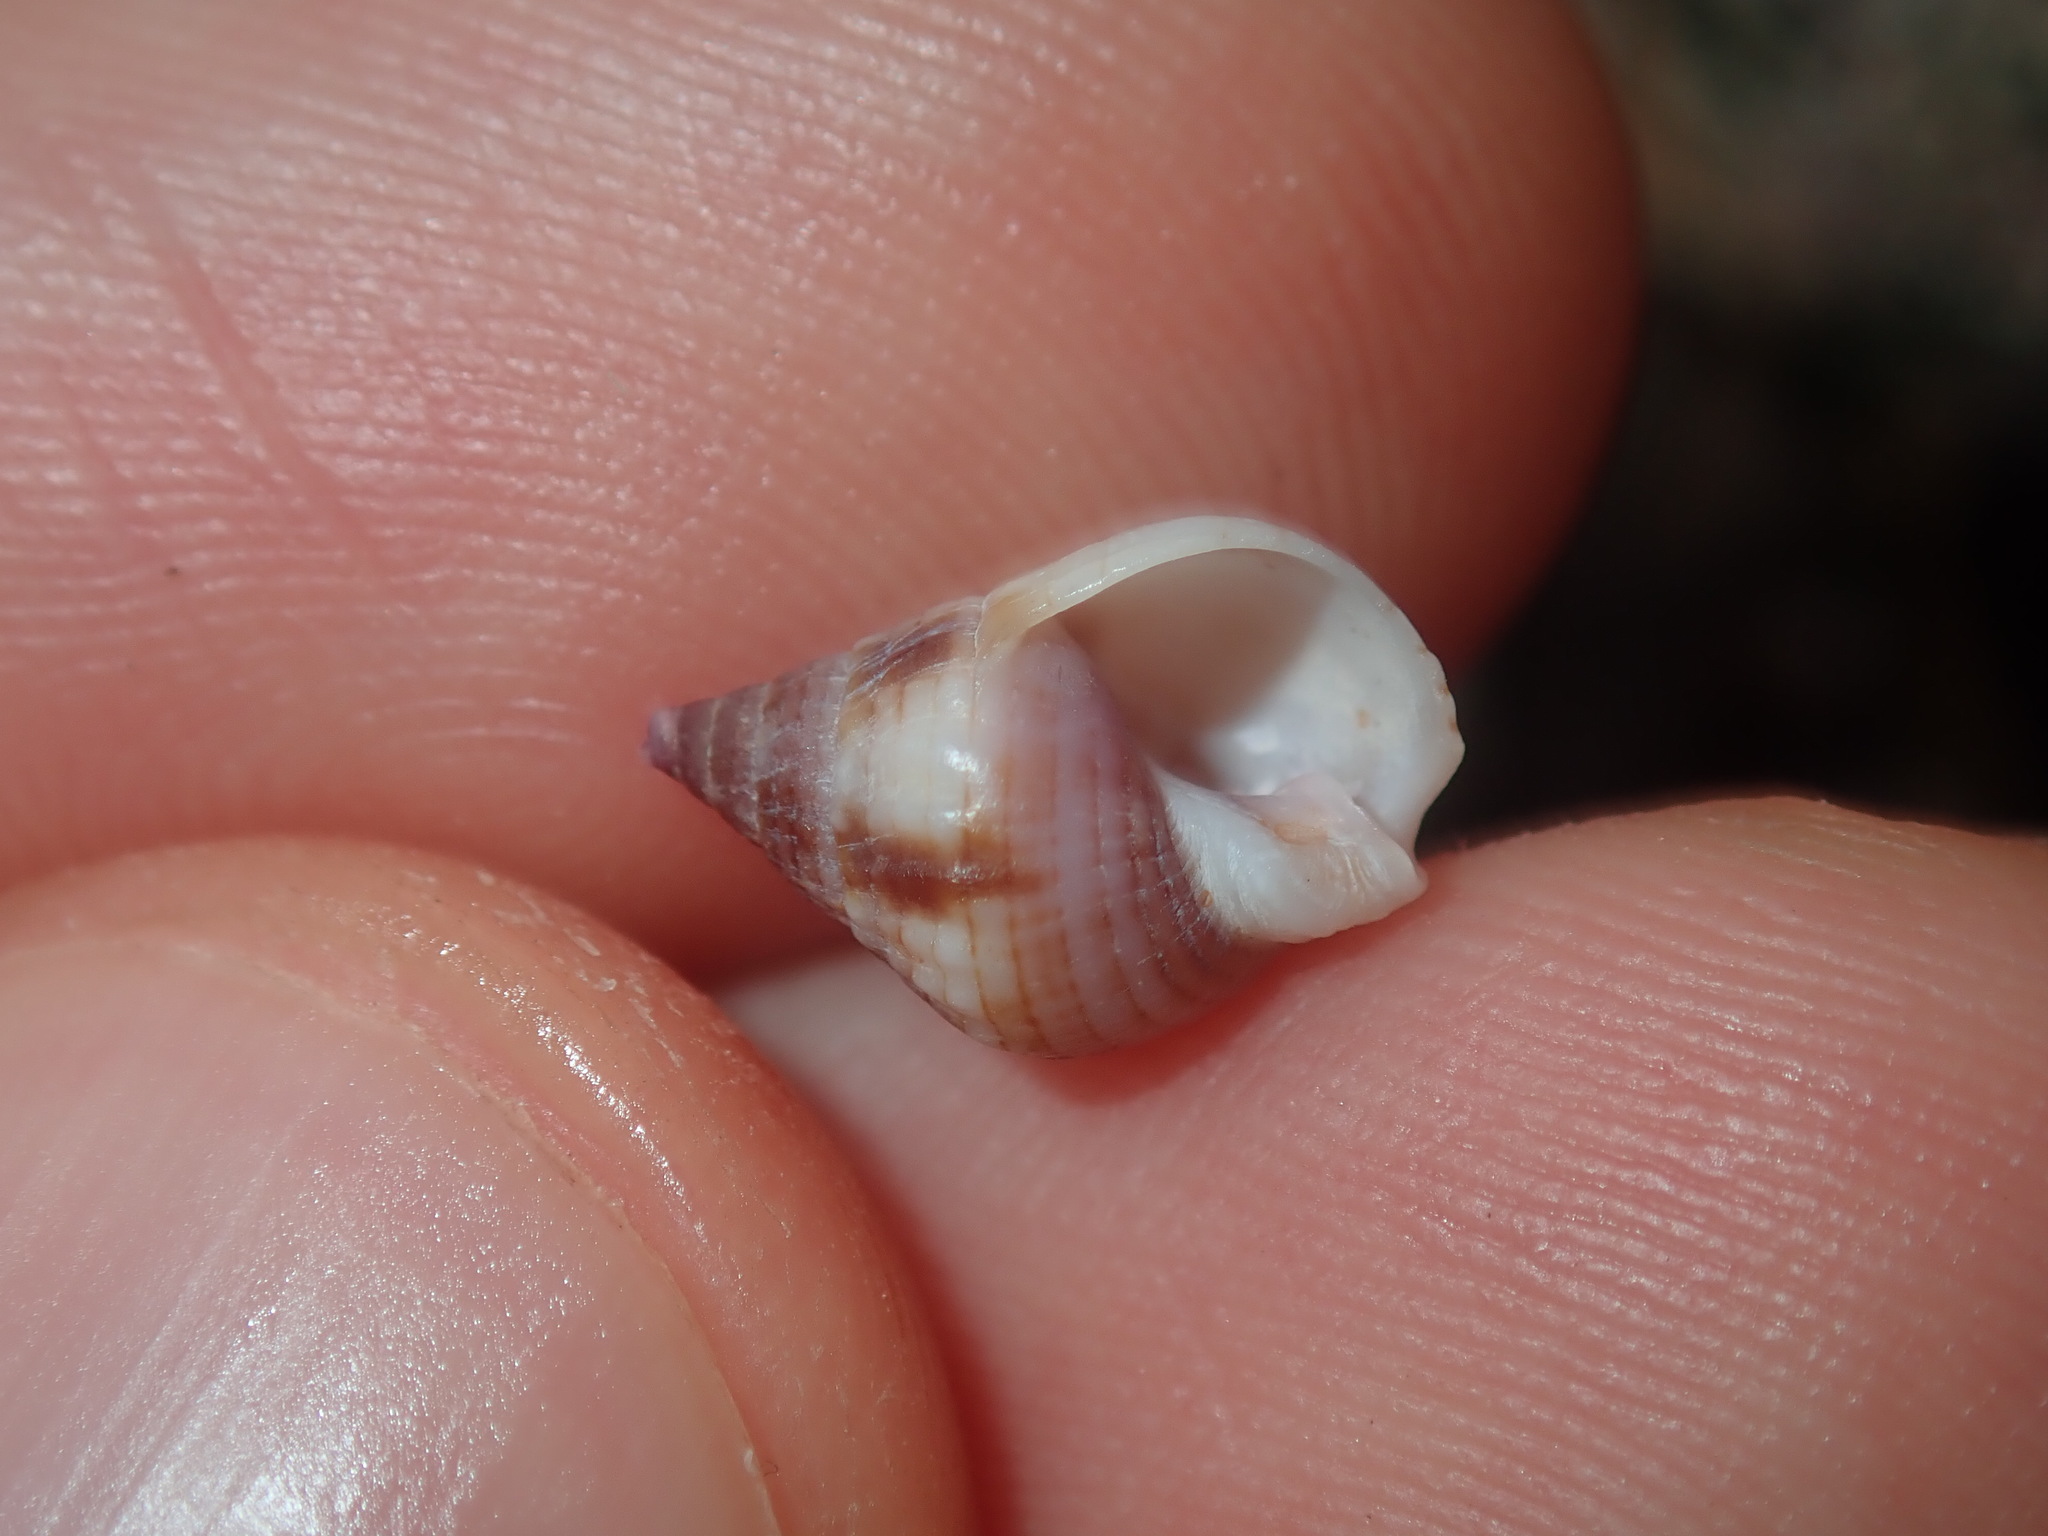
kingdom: Animalia
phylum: Mollusca
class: Gastropoda
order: Neogastropoda
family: Nassariidae
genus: Nassarius
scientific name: Nassarius gaudiosus
